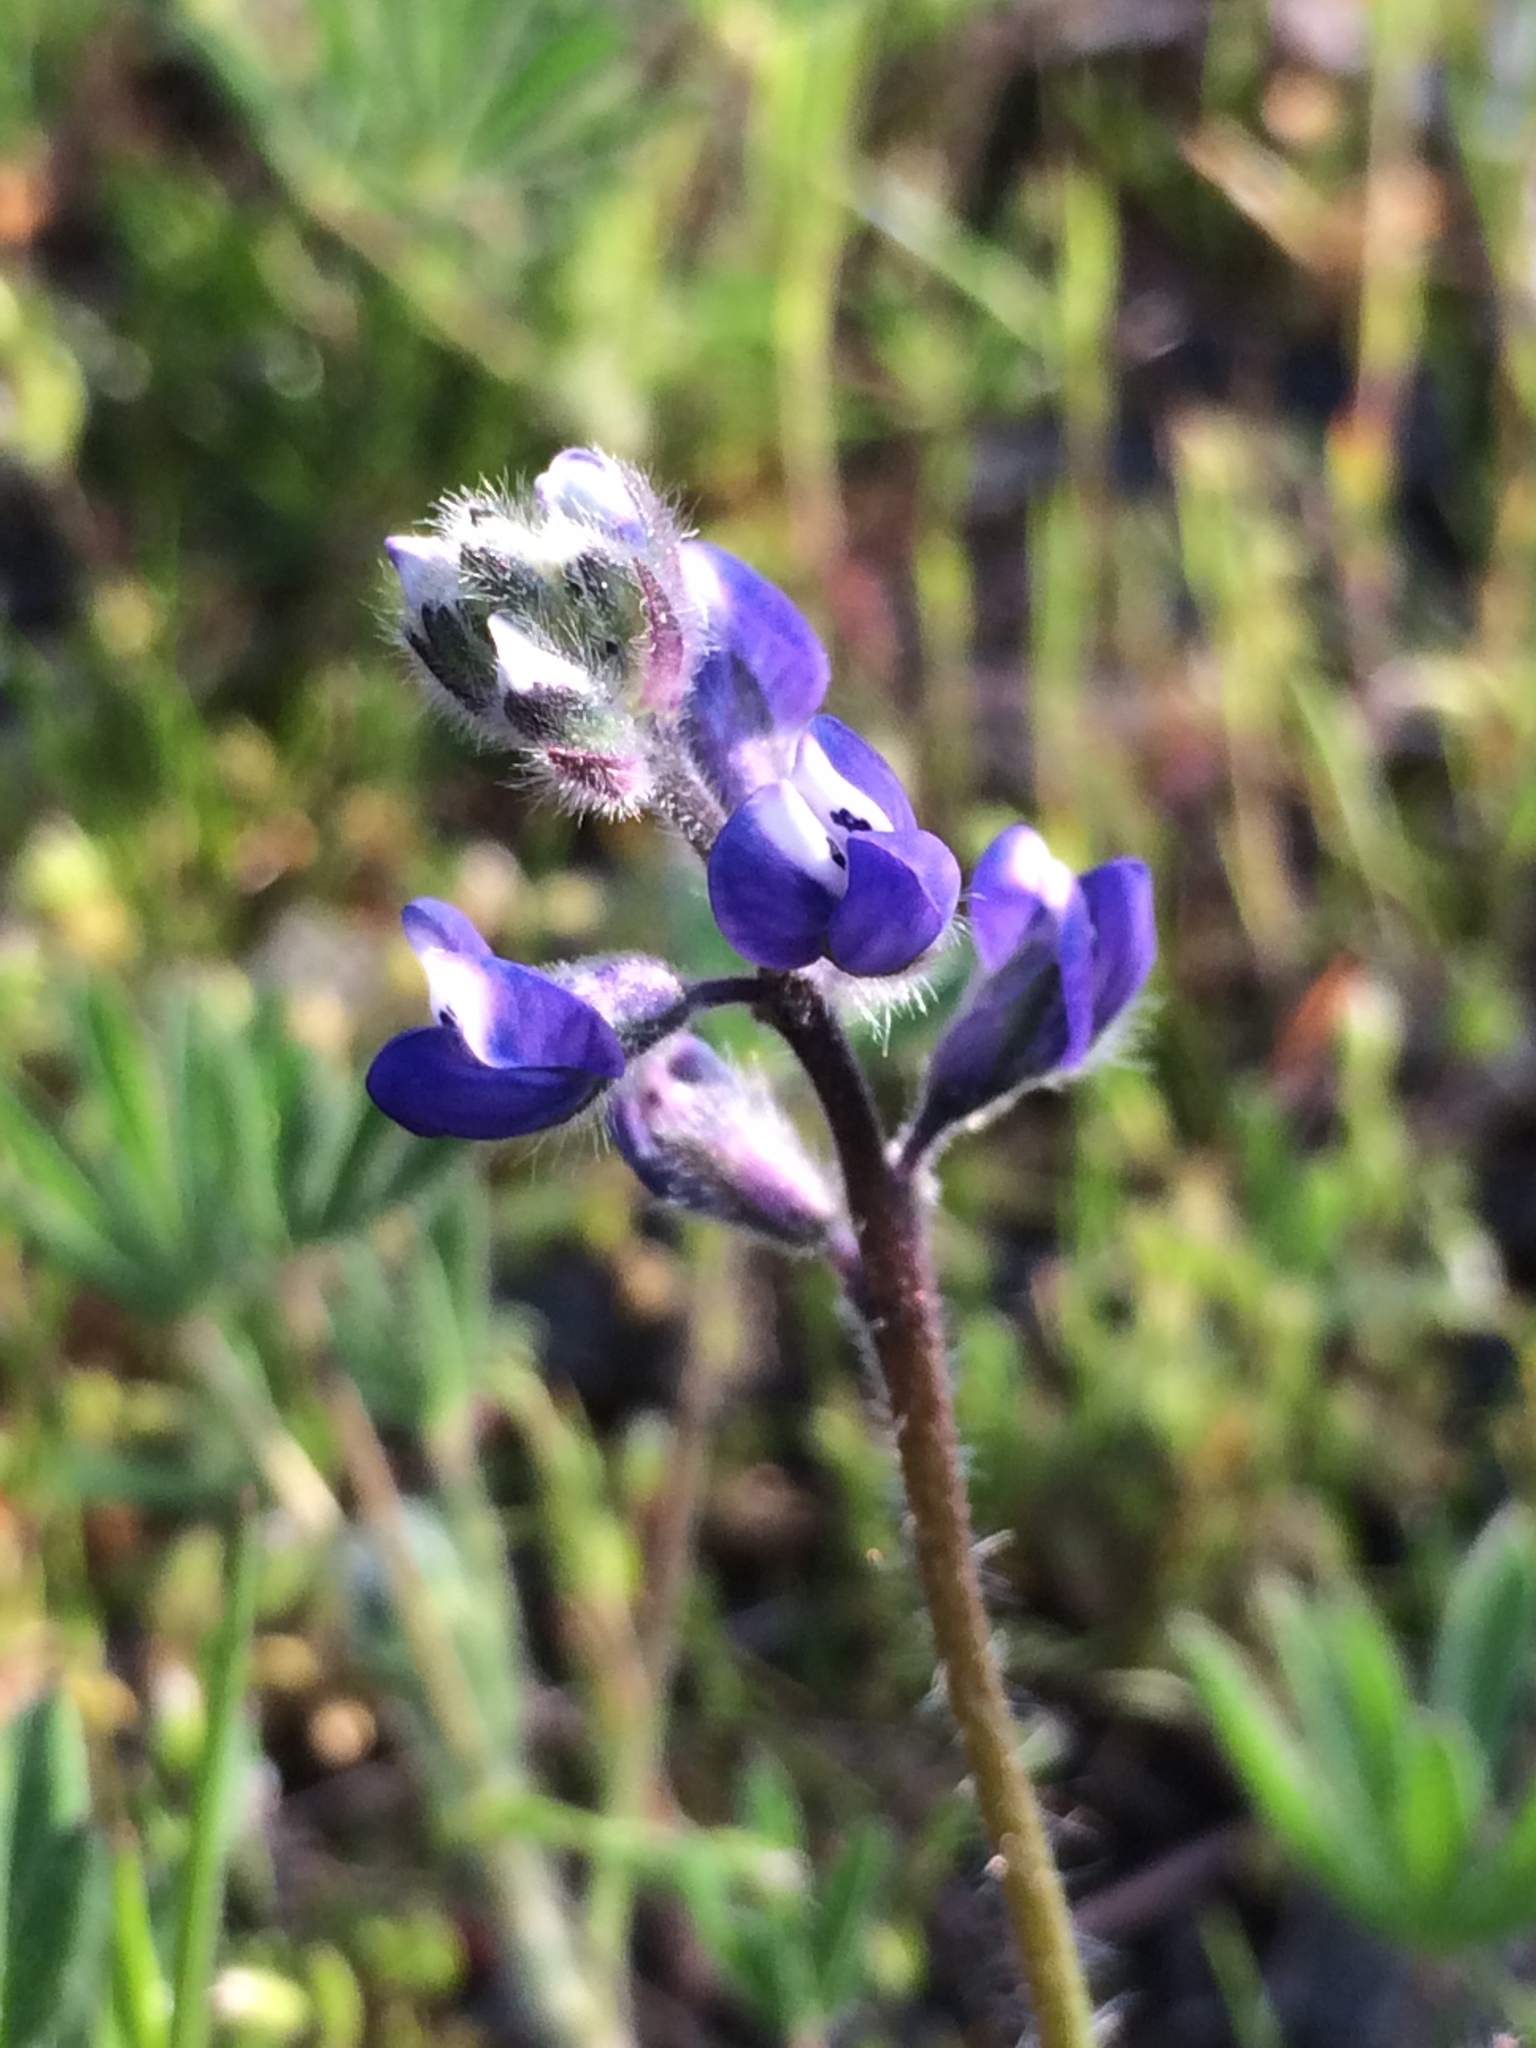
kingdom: Plantae
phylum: Tracheophyta
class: Magnoliopsida
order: Fabales
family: Fabaceae
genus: Lupinus
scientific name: Lupinus bicolor
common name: Miniature lupine
